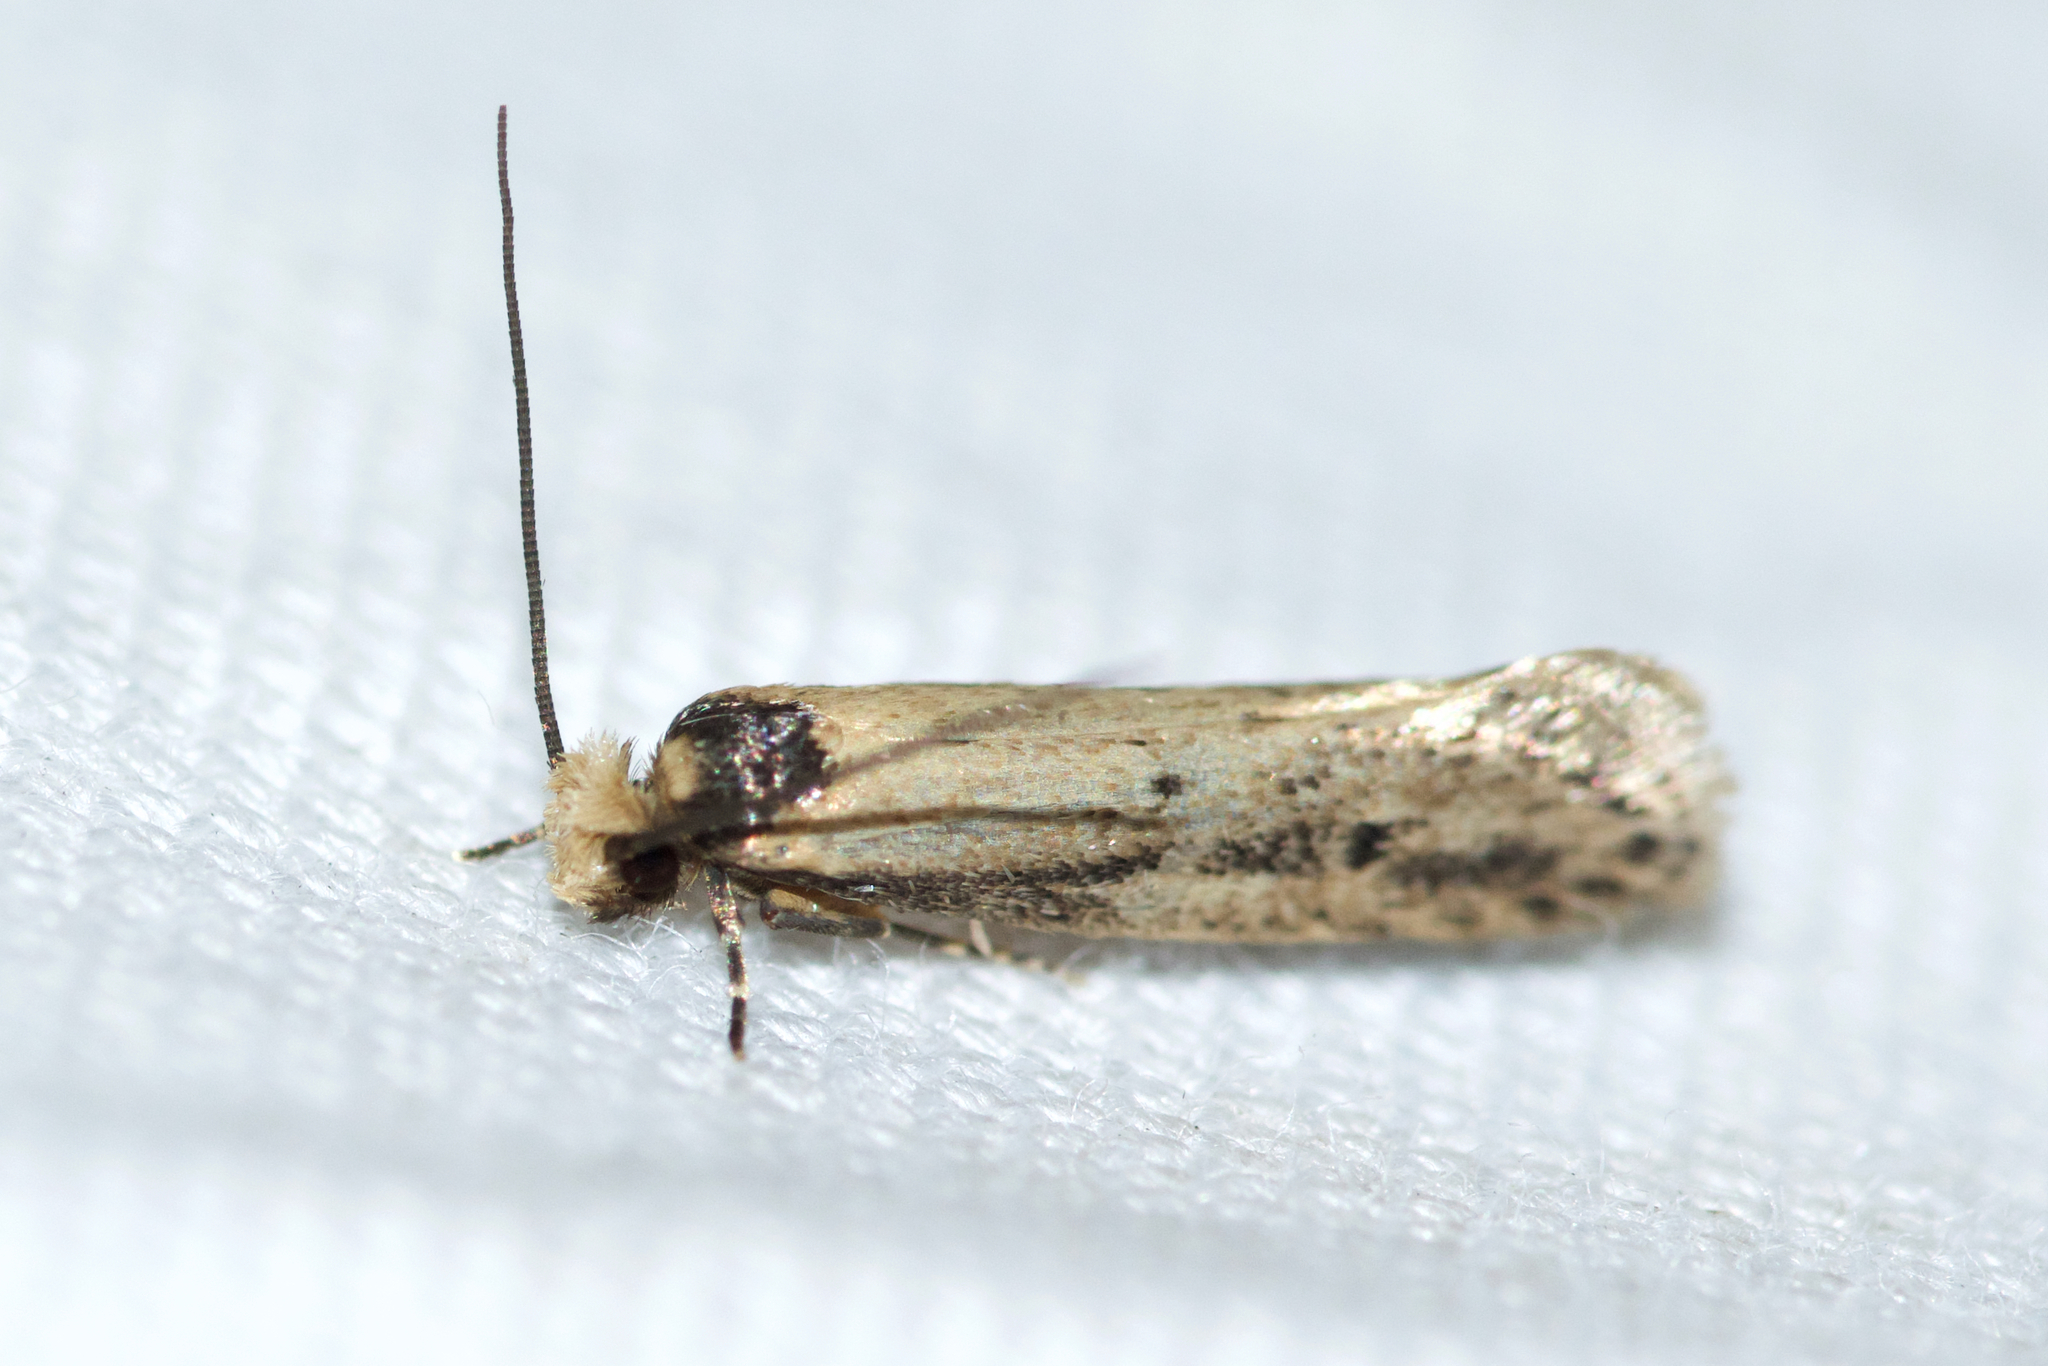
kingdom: Animalia
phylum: Arthropoda
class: Insecta
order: Lepidoptera
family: Tineidae
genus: Tinea
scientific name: Tinea apicimaculella
